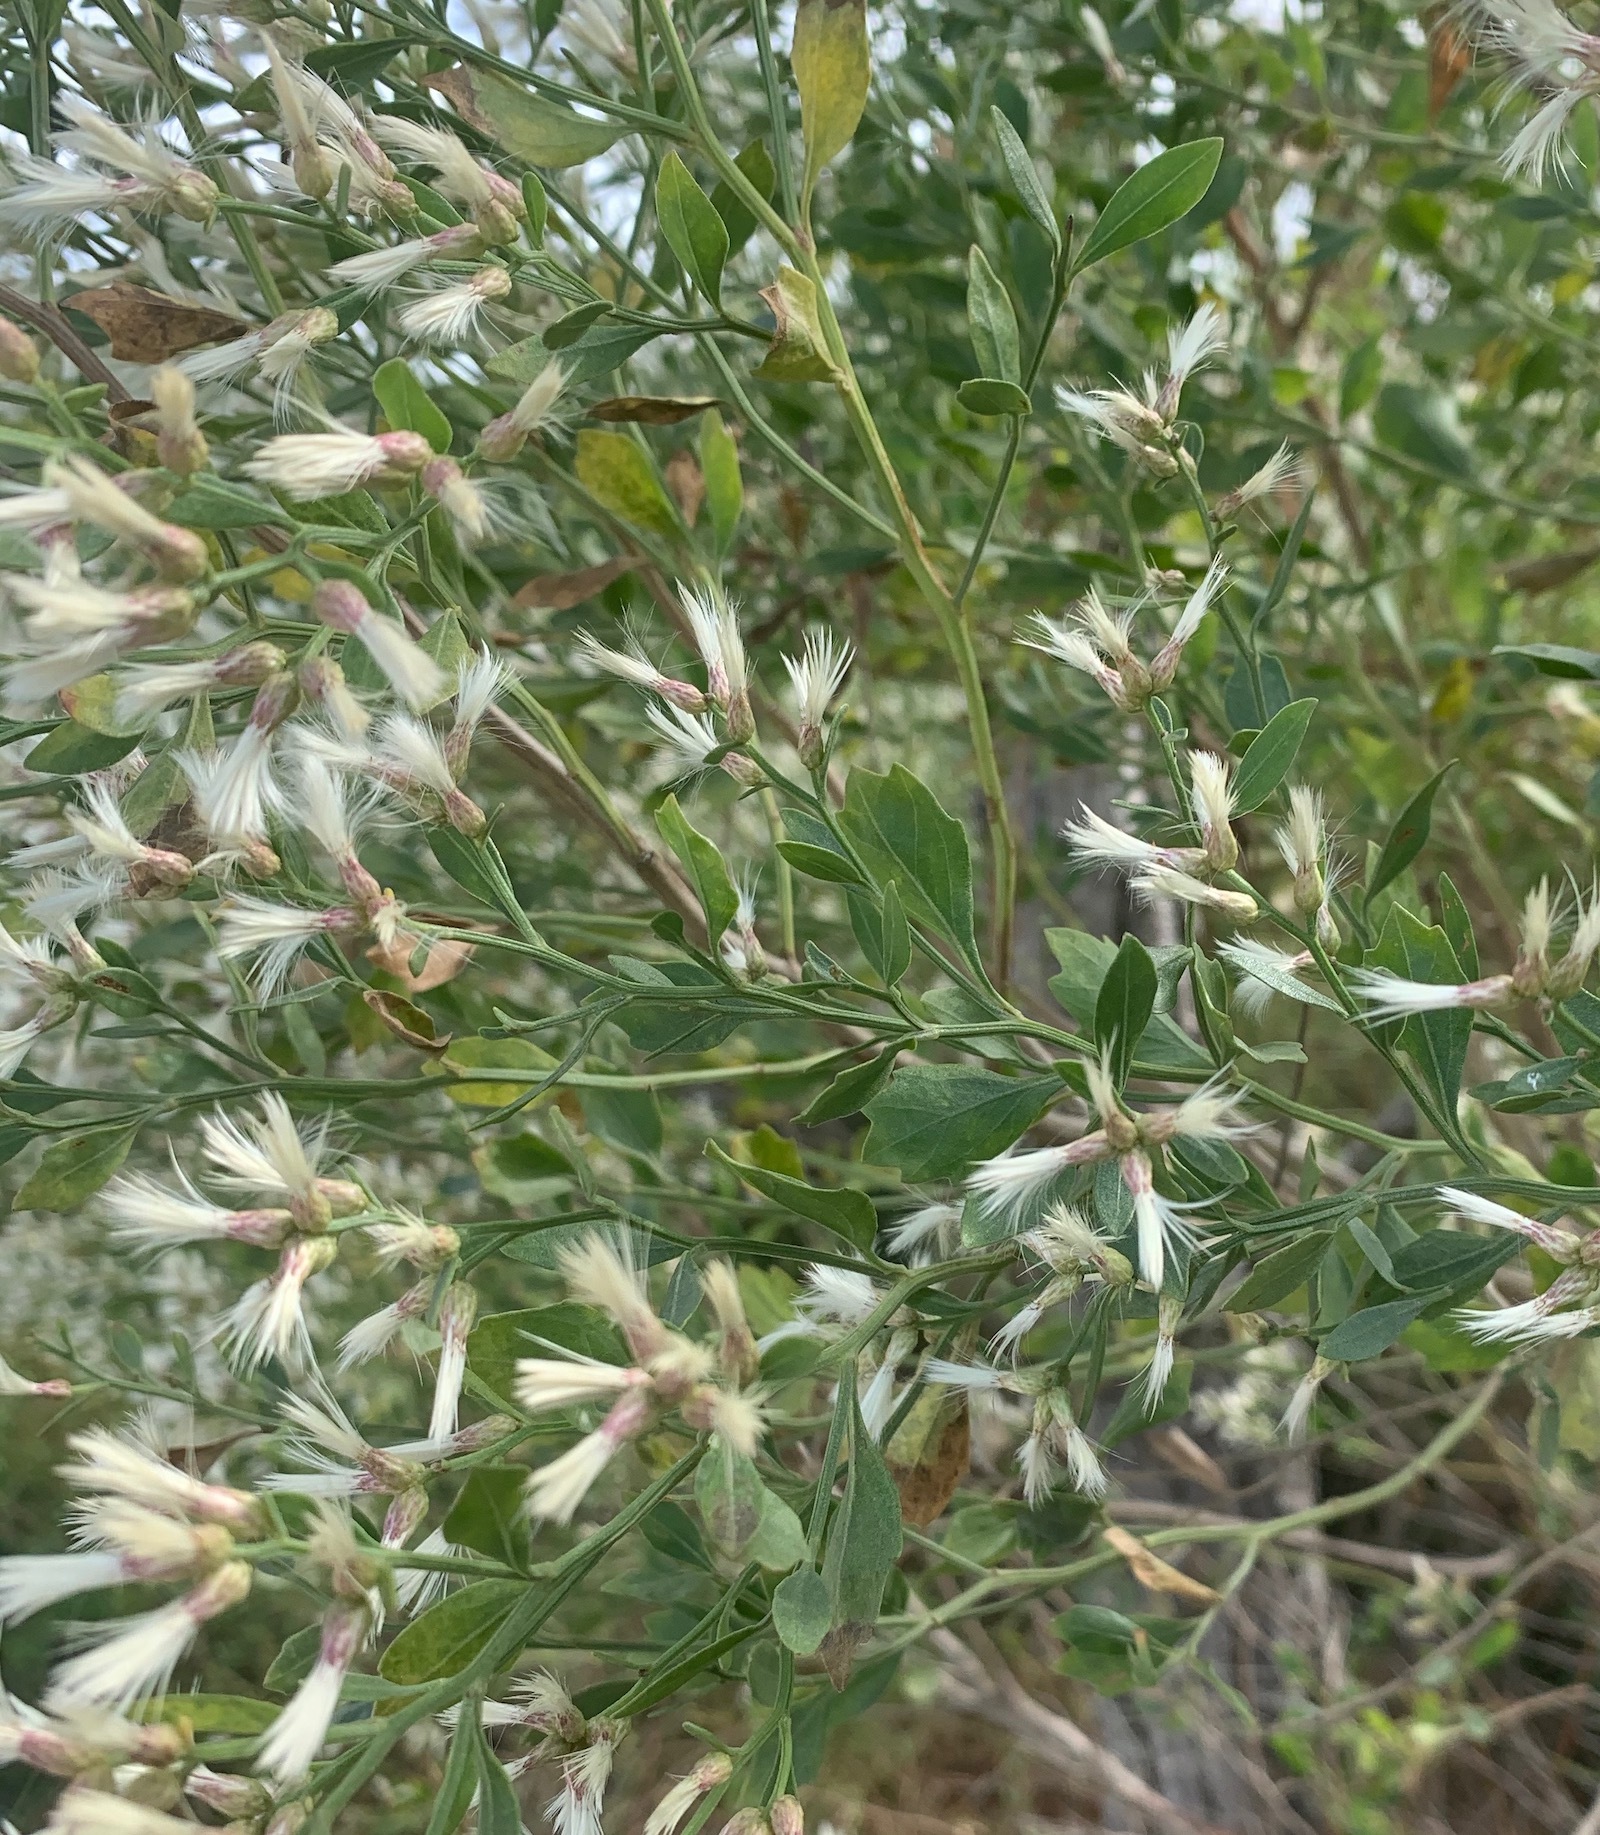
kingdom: Plantae
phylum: Tracheophyta
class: Magnoliopsida
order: Asterales
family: Asteraceae
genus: Baccharis
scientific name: Baccharis halimifolia
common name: Eastern baccharis
